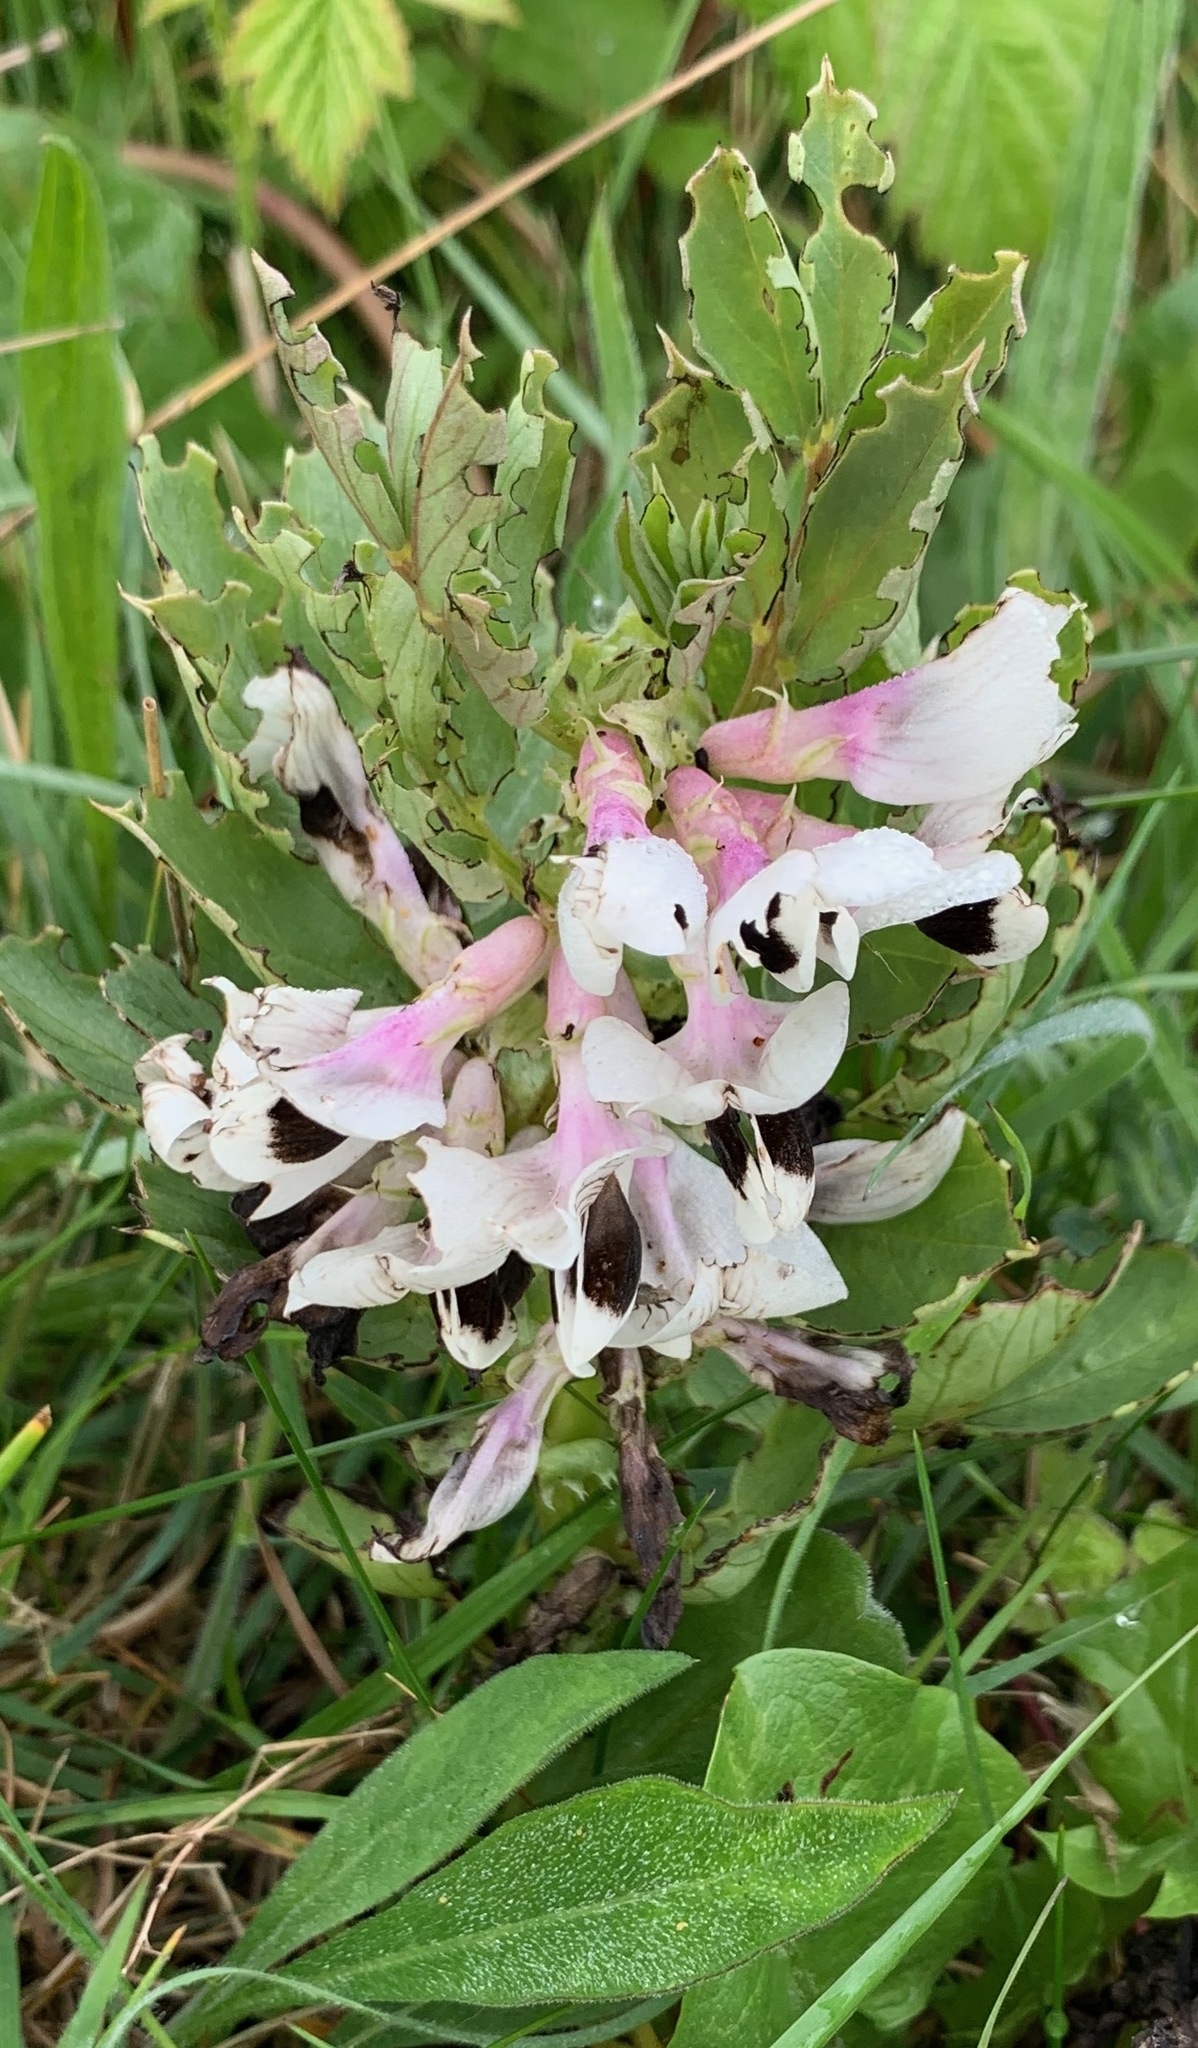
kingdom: Plantae
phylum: Tracheophyta
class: Magnoliopsida
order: Fabales
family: Fabaceae
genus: Vicia
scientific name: Vicia faba
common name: Broad bean
